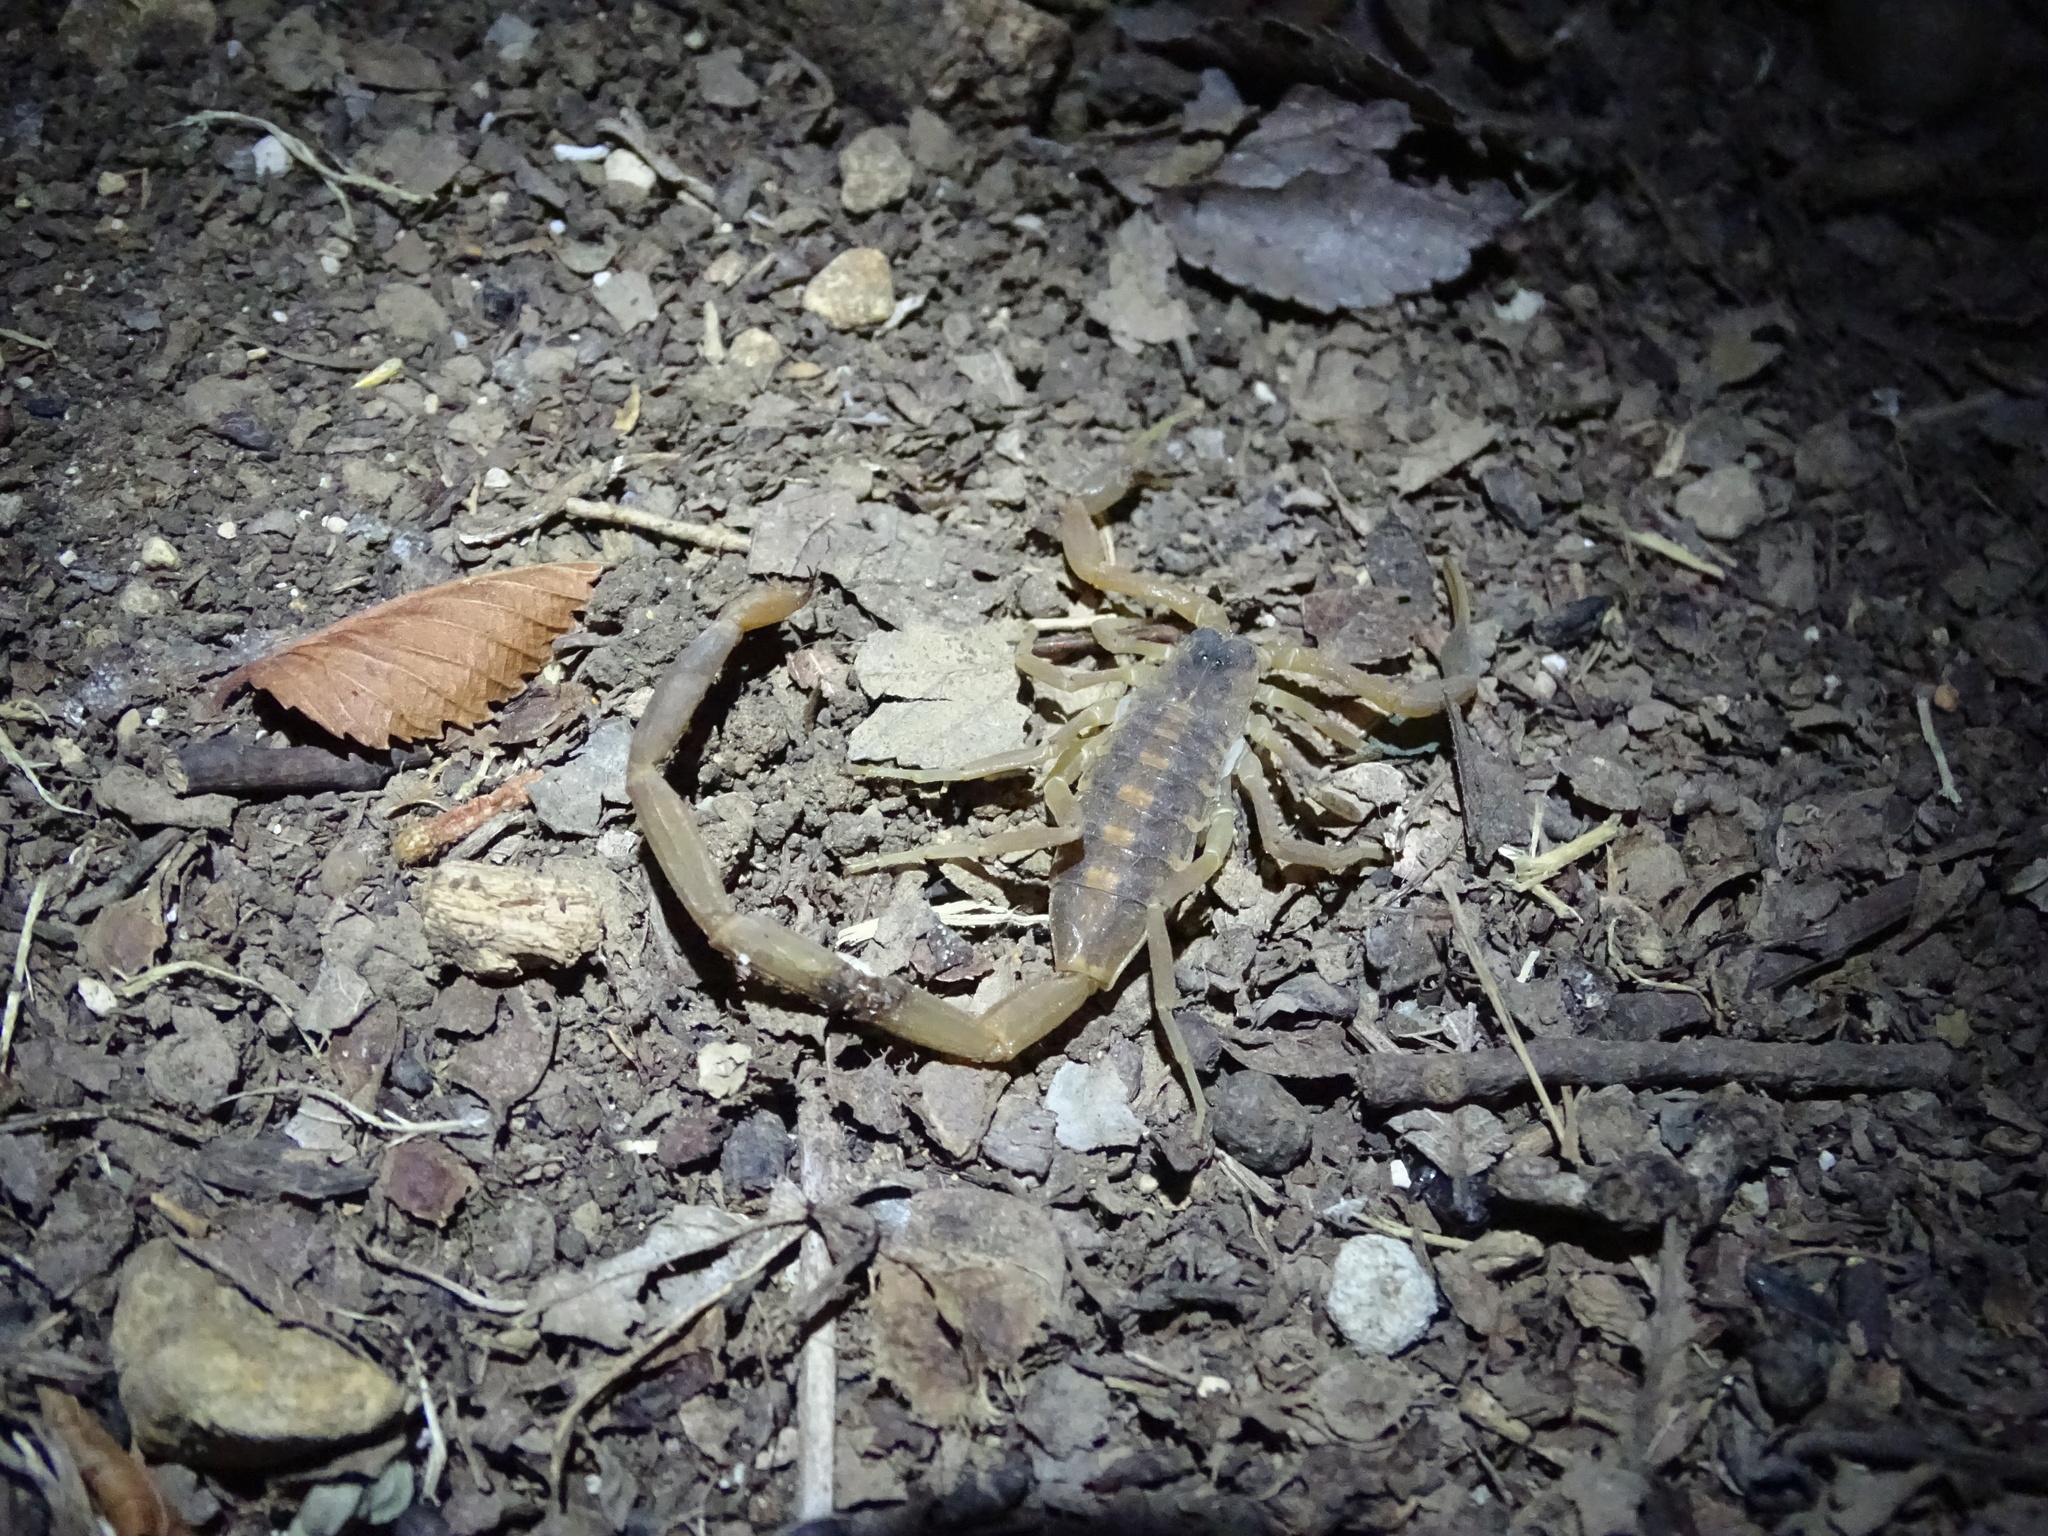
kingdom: Animalia
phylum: Arthropoda
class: Arachnida
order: Scorpiones
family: Buthidae
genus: Centruroides
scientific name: Centruroides vittatus
